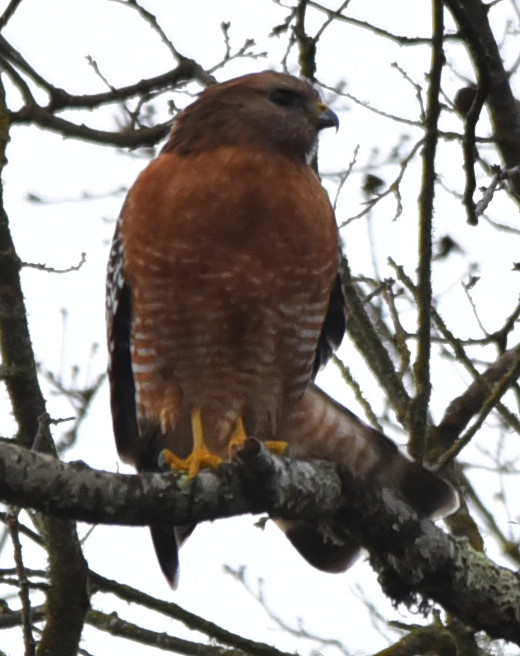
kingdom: Animalia
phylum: Chordata
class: Aves
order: Accipitriformes
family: Accipitridae
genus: Buteo
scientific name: Buteo lineatus
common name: Red-shouldered hawk
